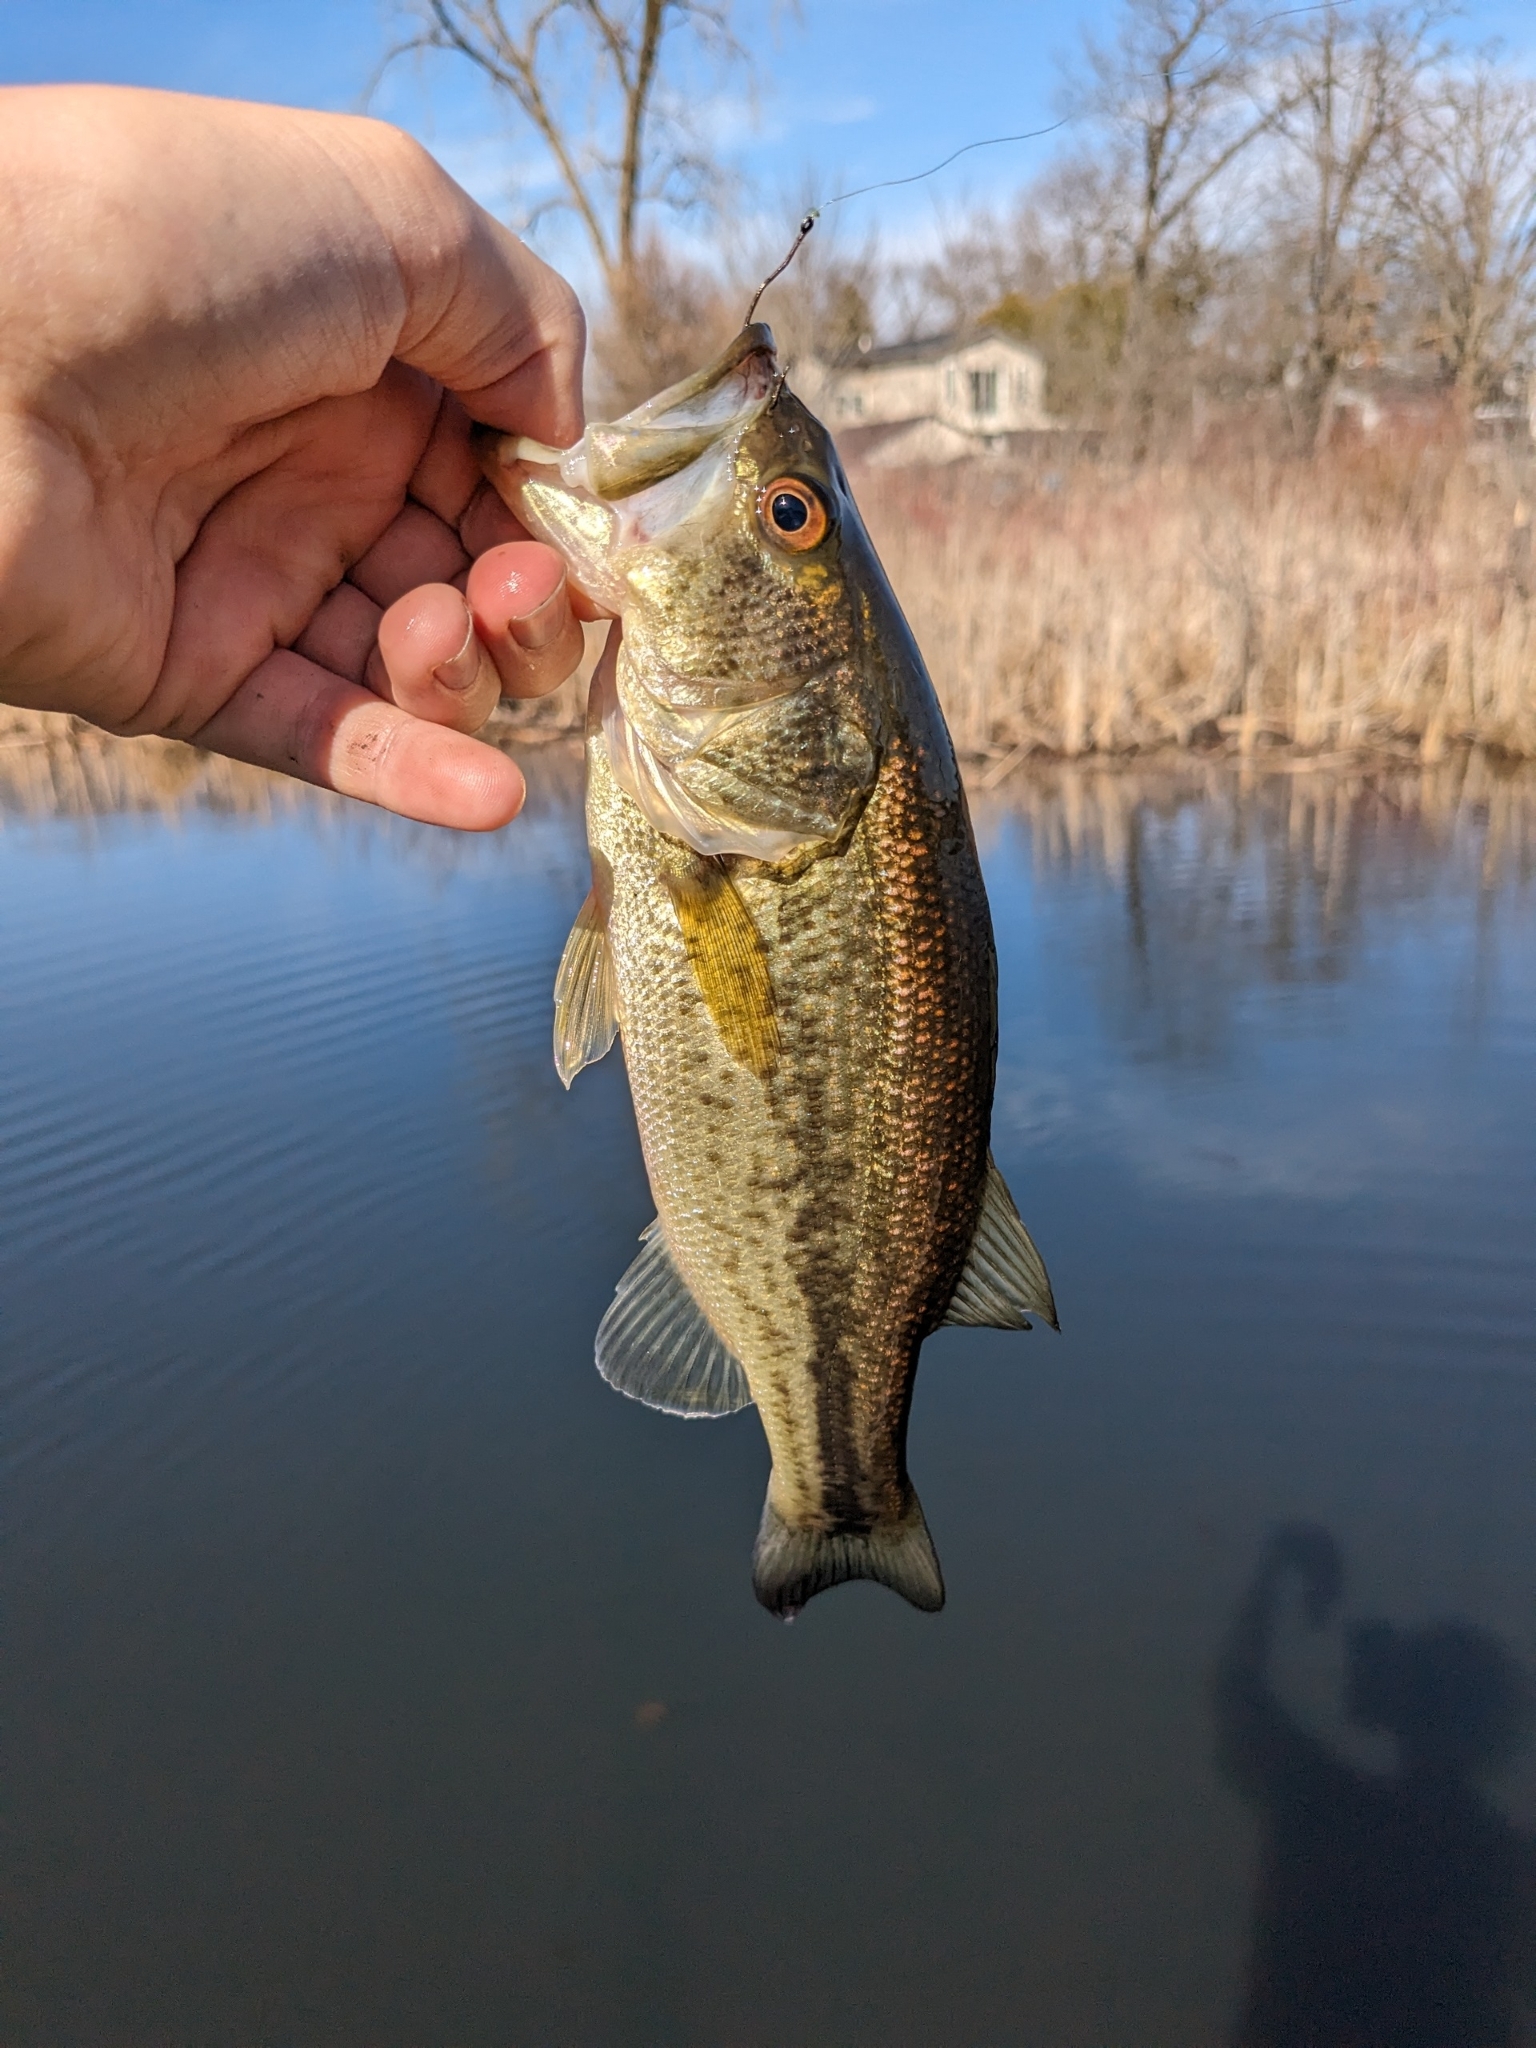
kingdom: Animalia
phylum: Chordata
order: Perciformes
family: Centrarchidae
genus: Micropterus
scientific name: Micropterus
